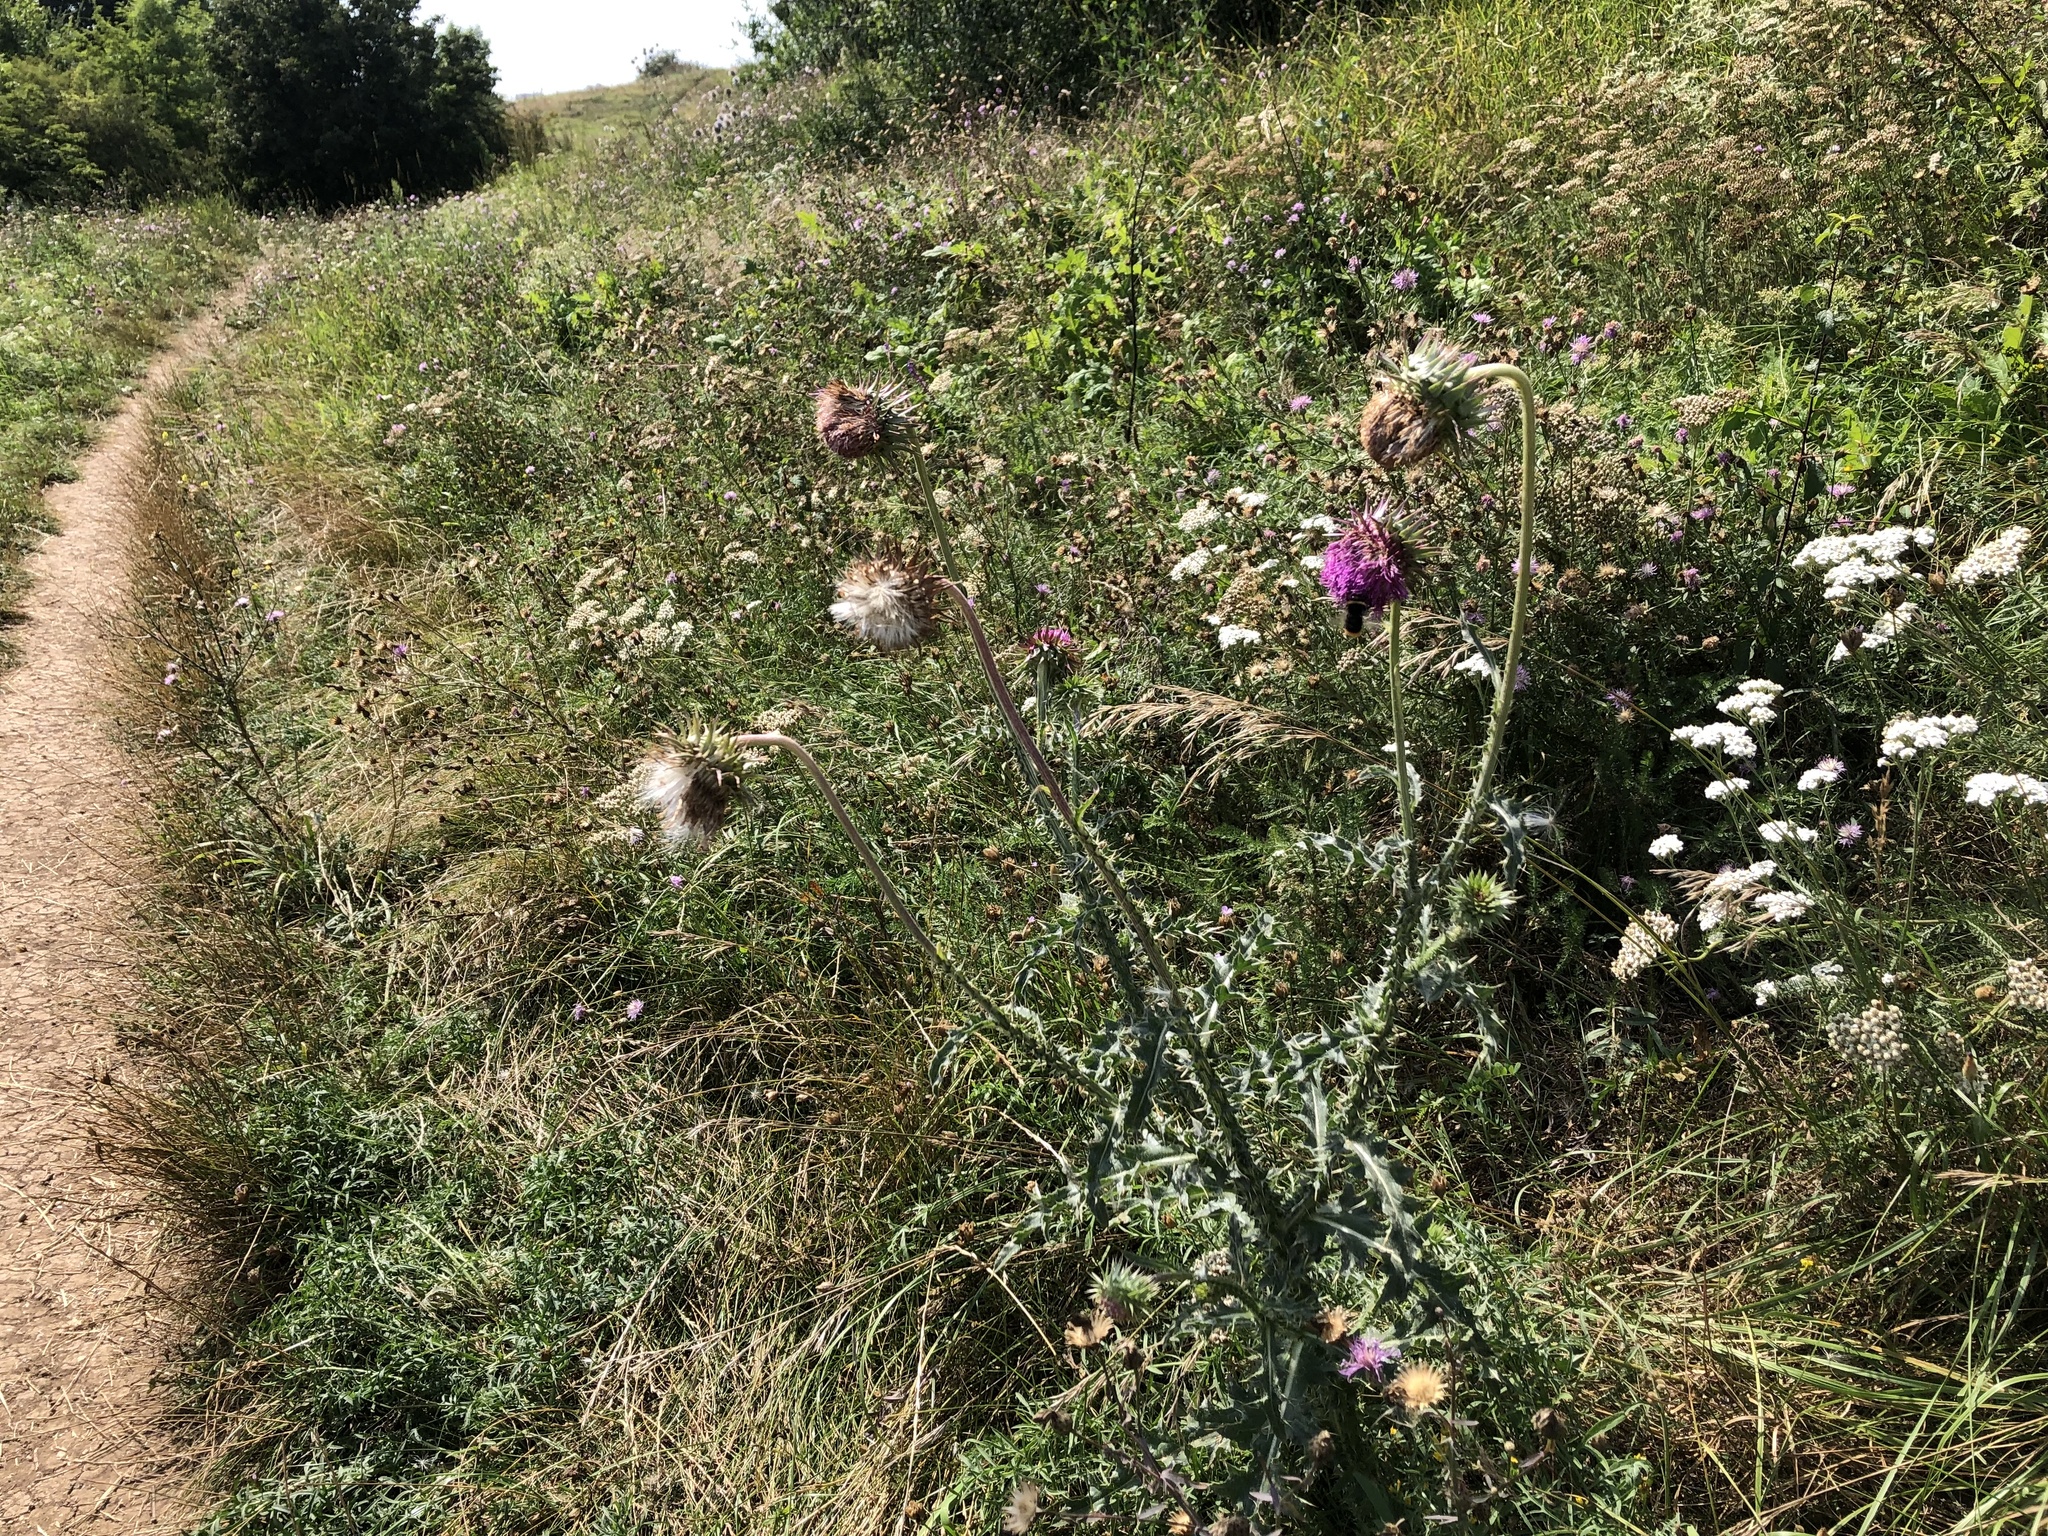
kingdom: Plantae
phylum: Tracheophyta
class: Magnoliopsida
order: Asterales
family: Asteraceae
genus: Carduus
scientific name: Carduus nutans
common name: Musk thistle
